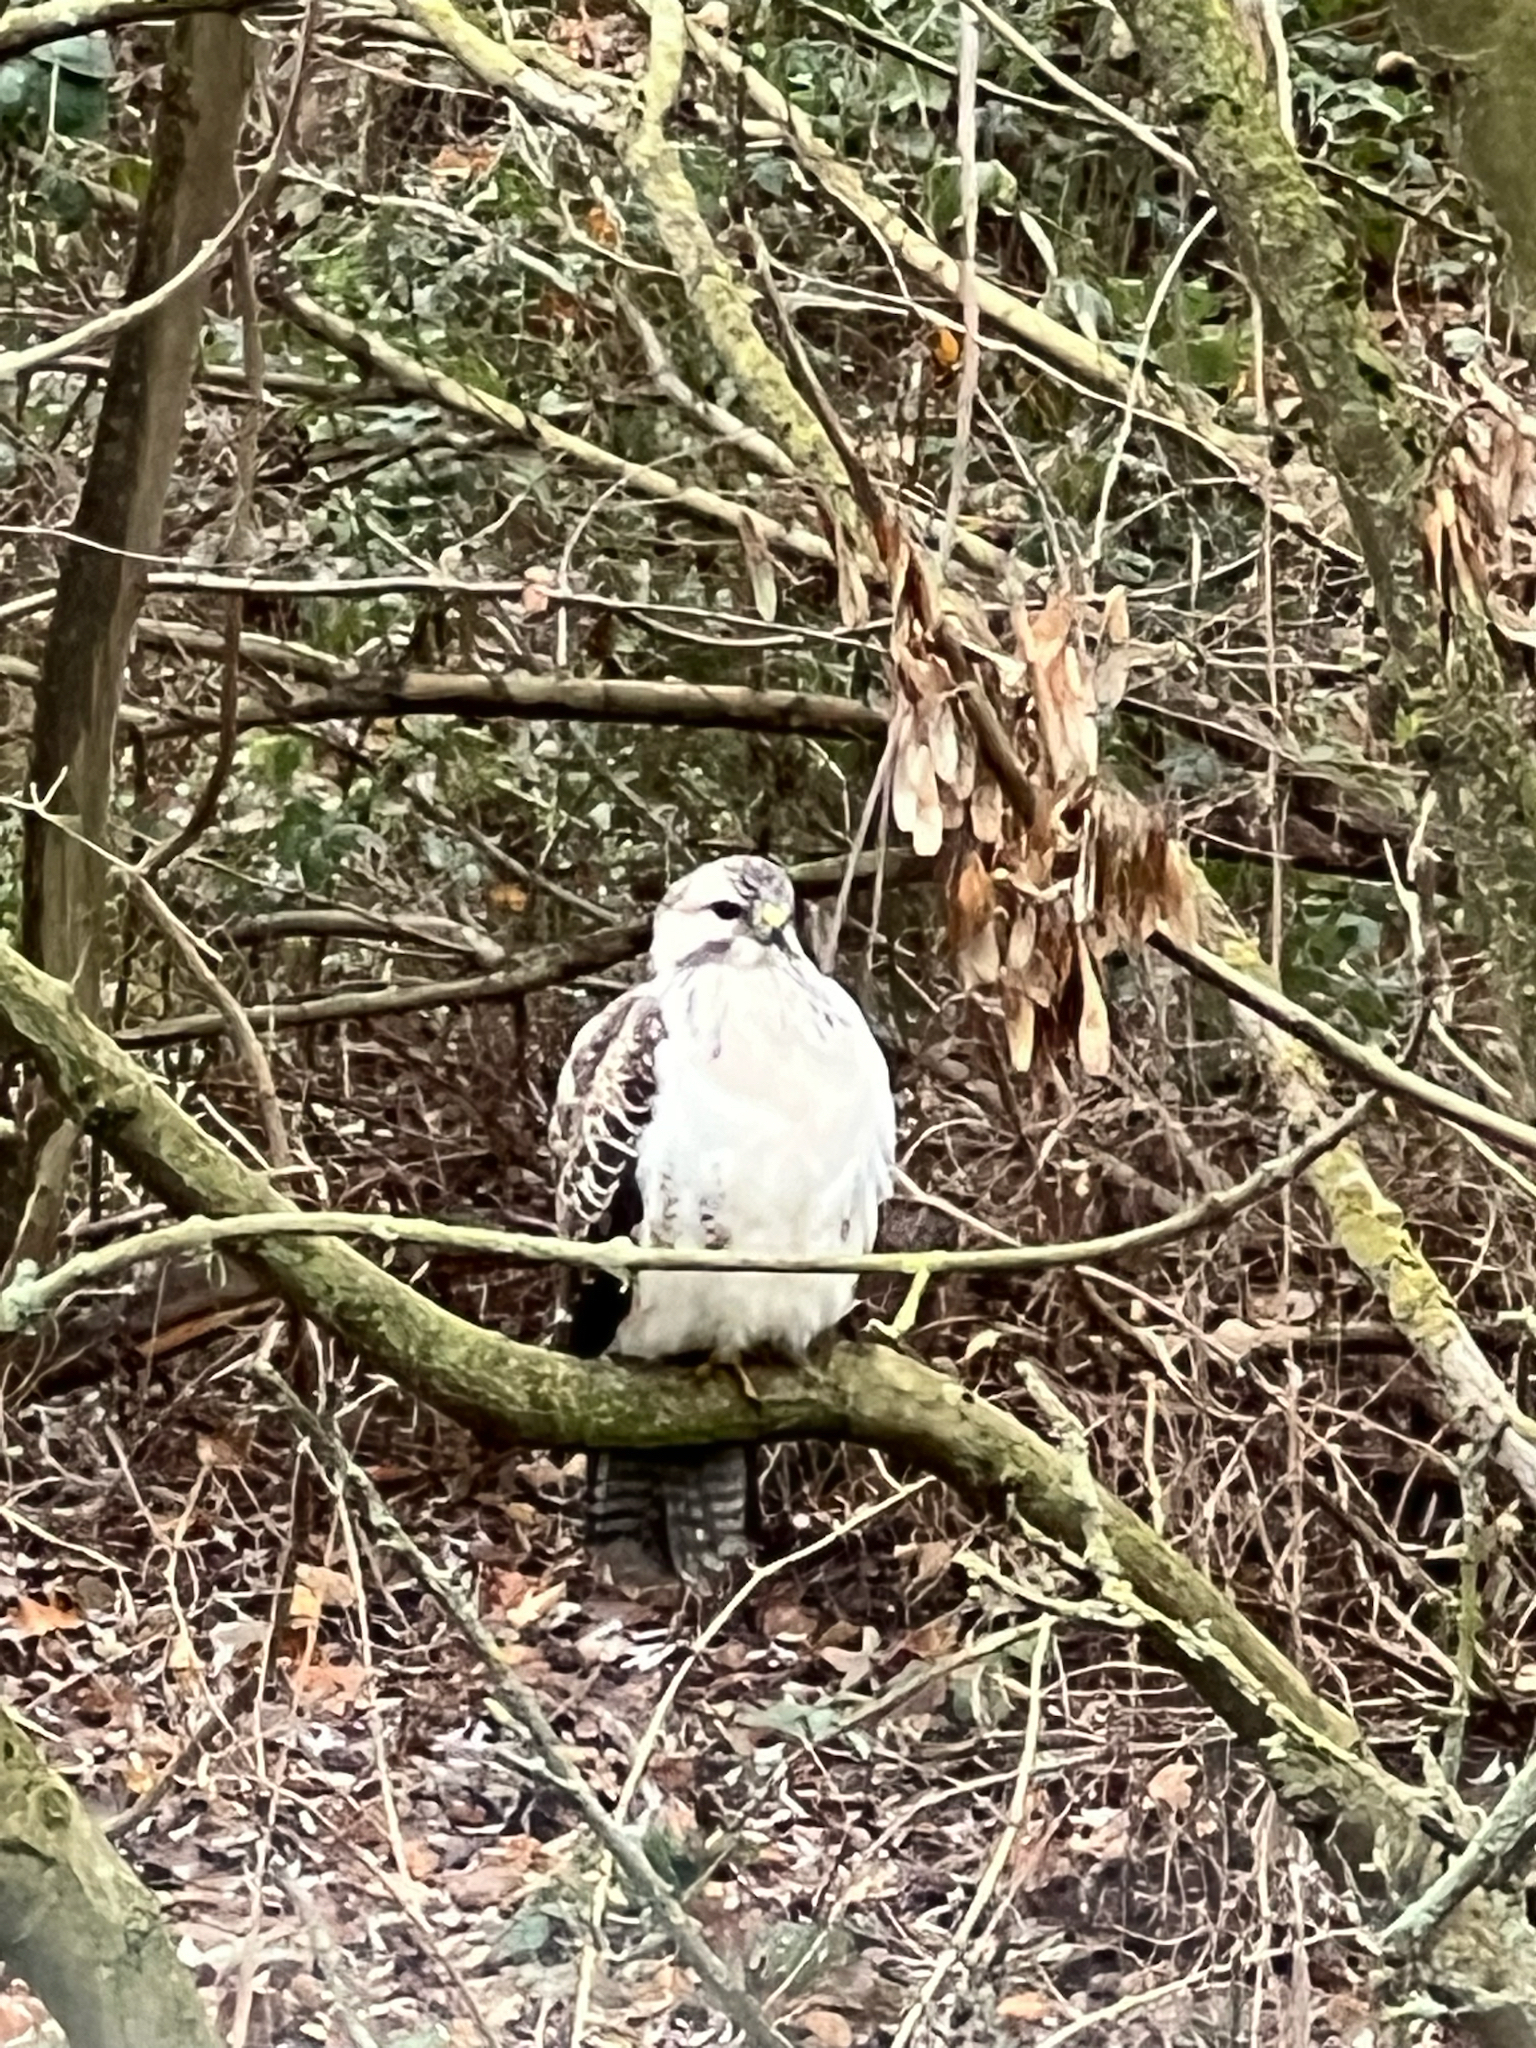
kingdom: Animalia
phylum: Chordata
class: Aves
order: Accipitriformes
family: Accipitridae
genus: Buteo
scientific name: Buteo buteo
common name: Common buzzard
